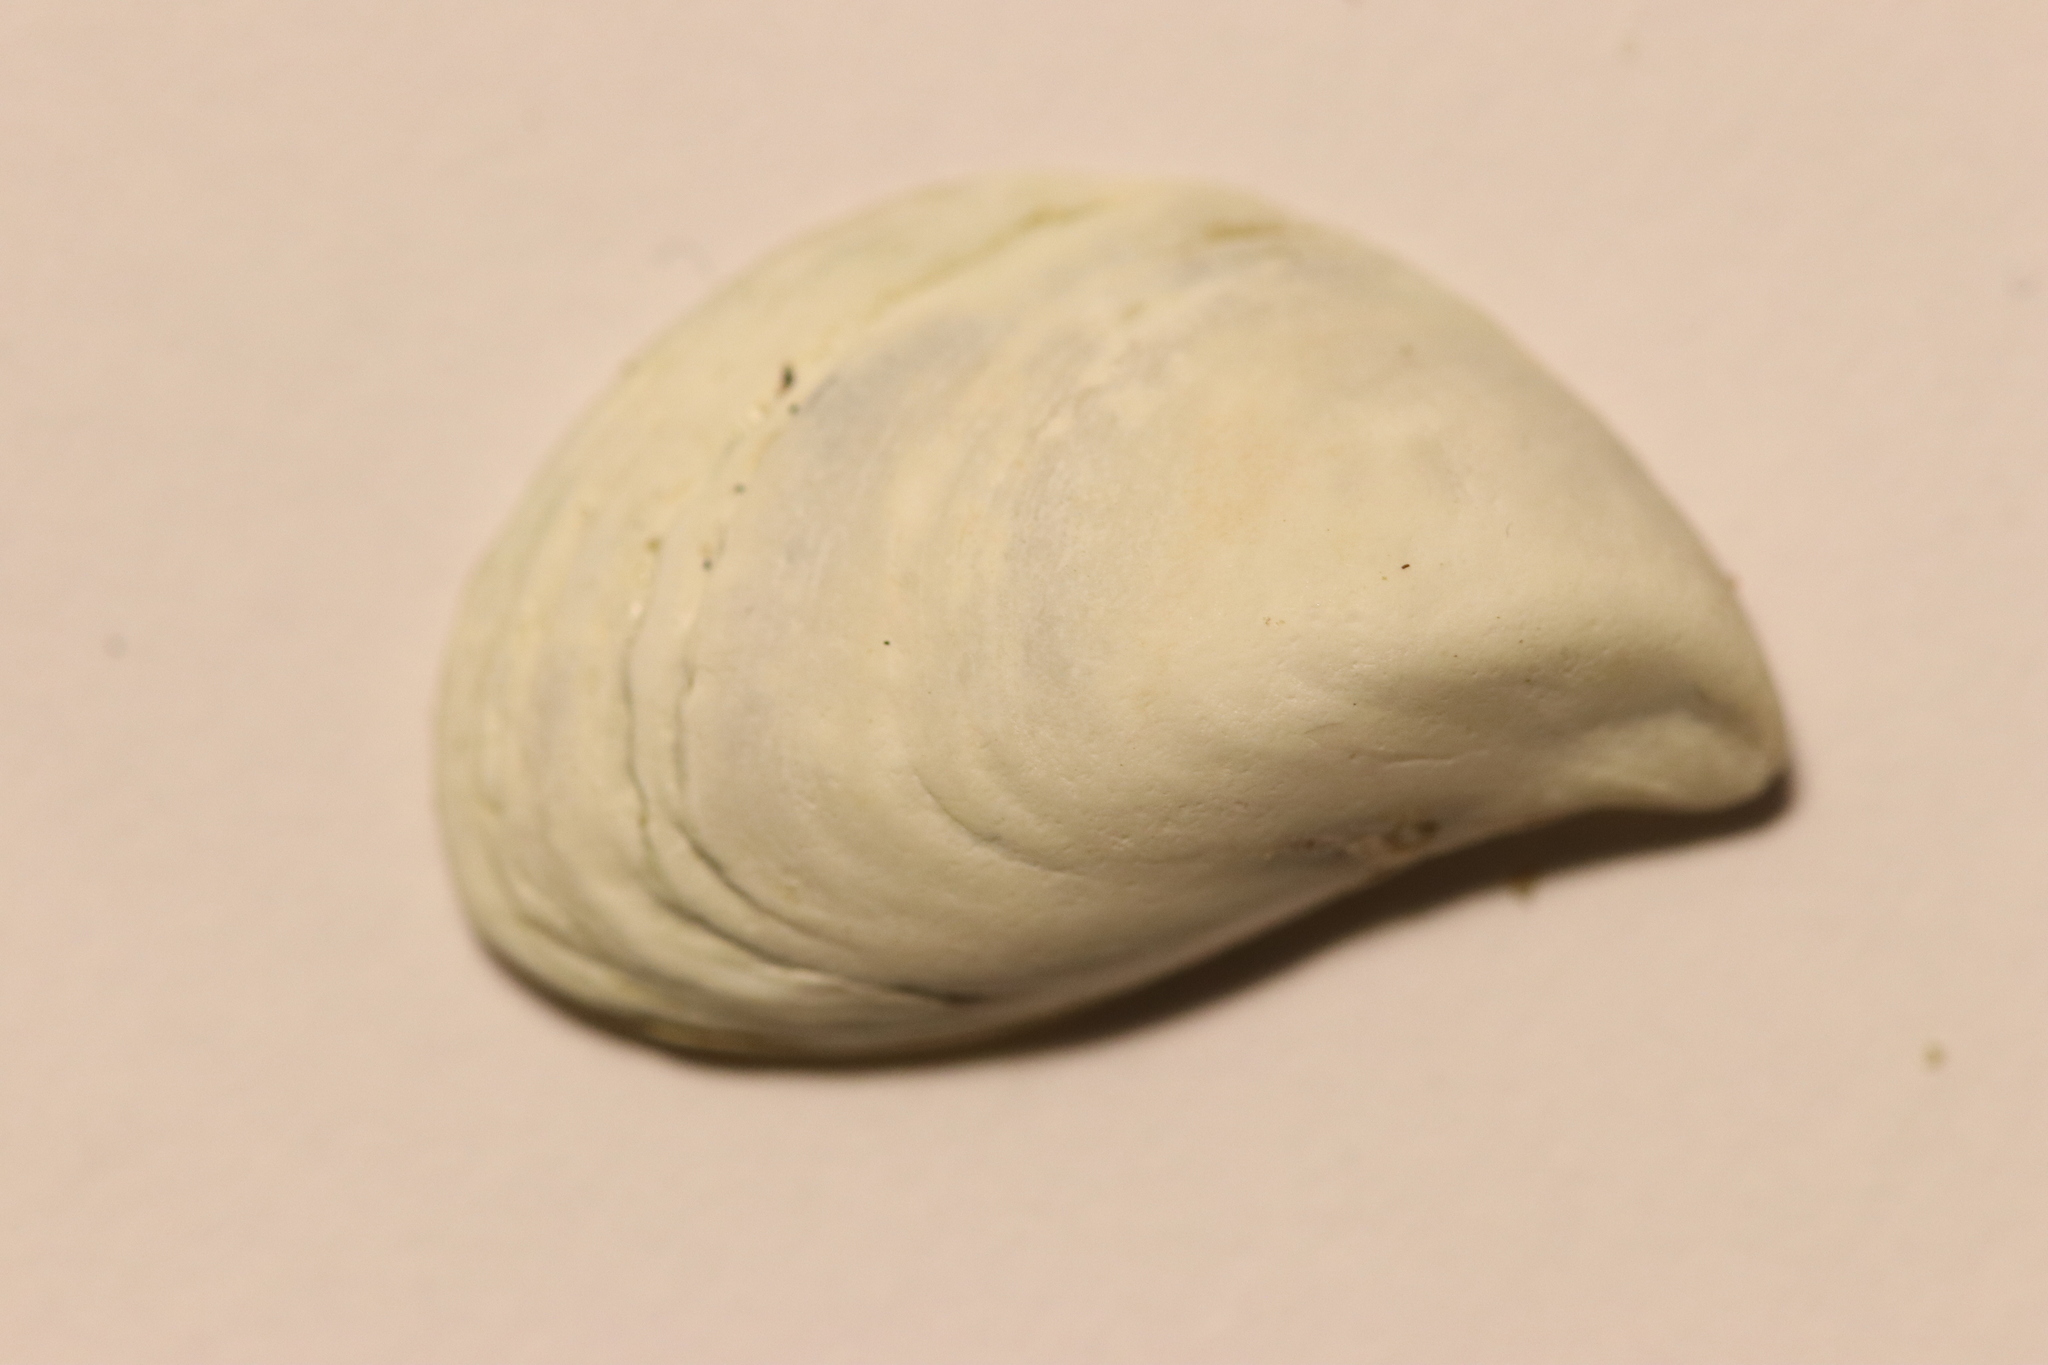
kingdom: Animalia
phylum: Mollusca
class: Bivalvia
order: Myida
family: Dreissenidae
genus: Dreissena
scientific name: Dreissena bugensis
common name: Quagga mussel
